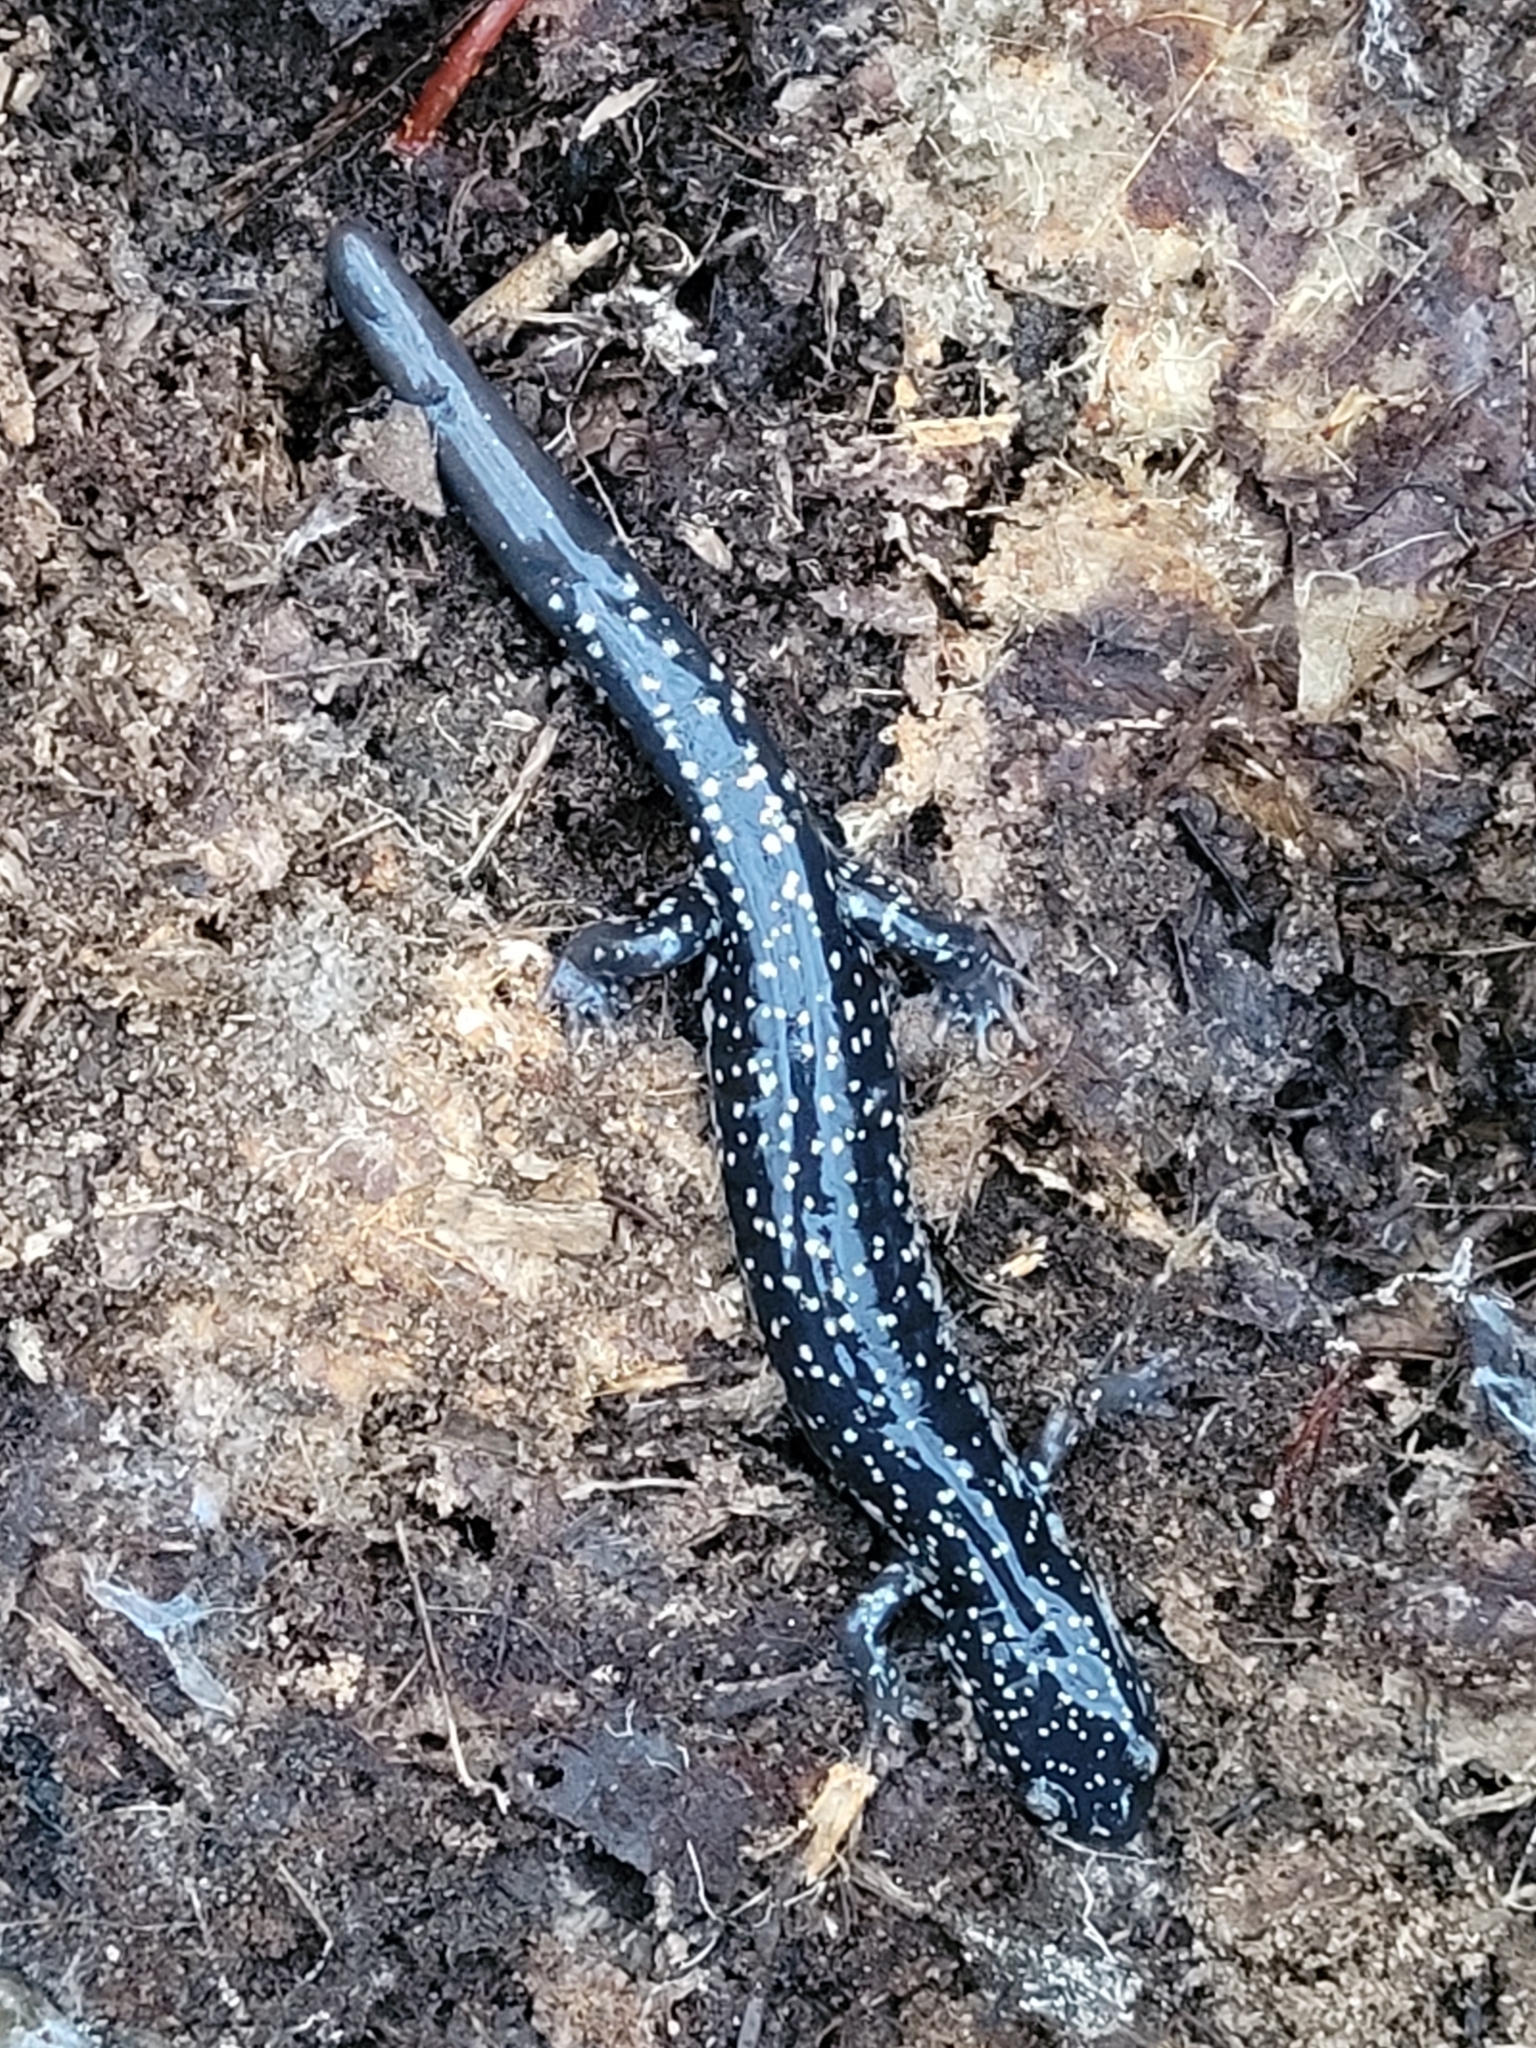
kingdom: Animalia
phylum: Chordata
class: Amphibia
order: Caudata
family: Plethodontidae
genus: Plethodon
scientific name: Plethodon glutinosus
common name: Northern slimy salamander
